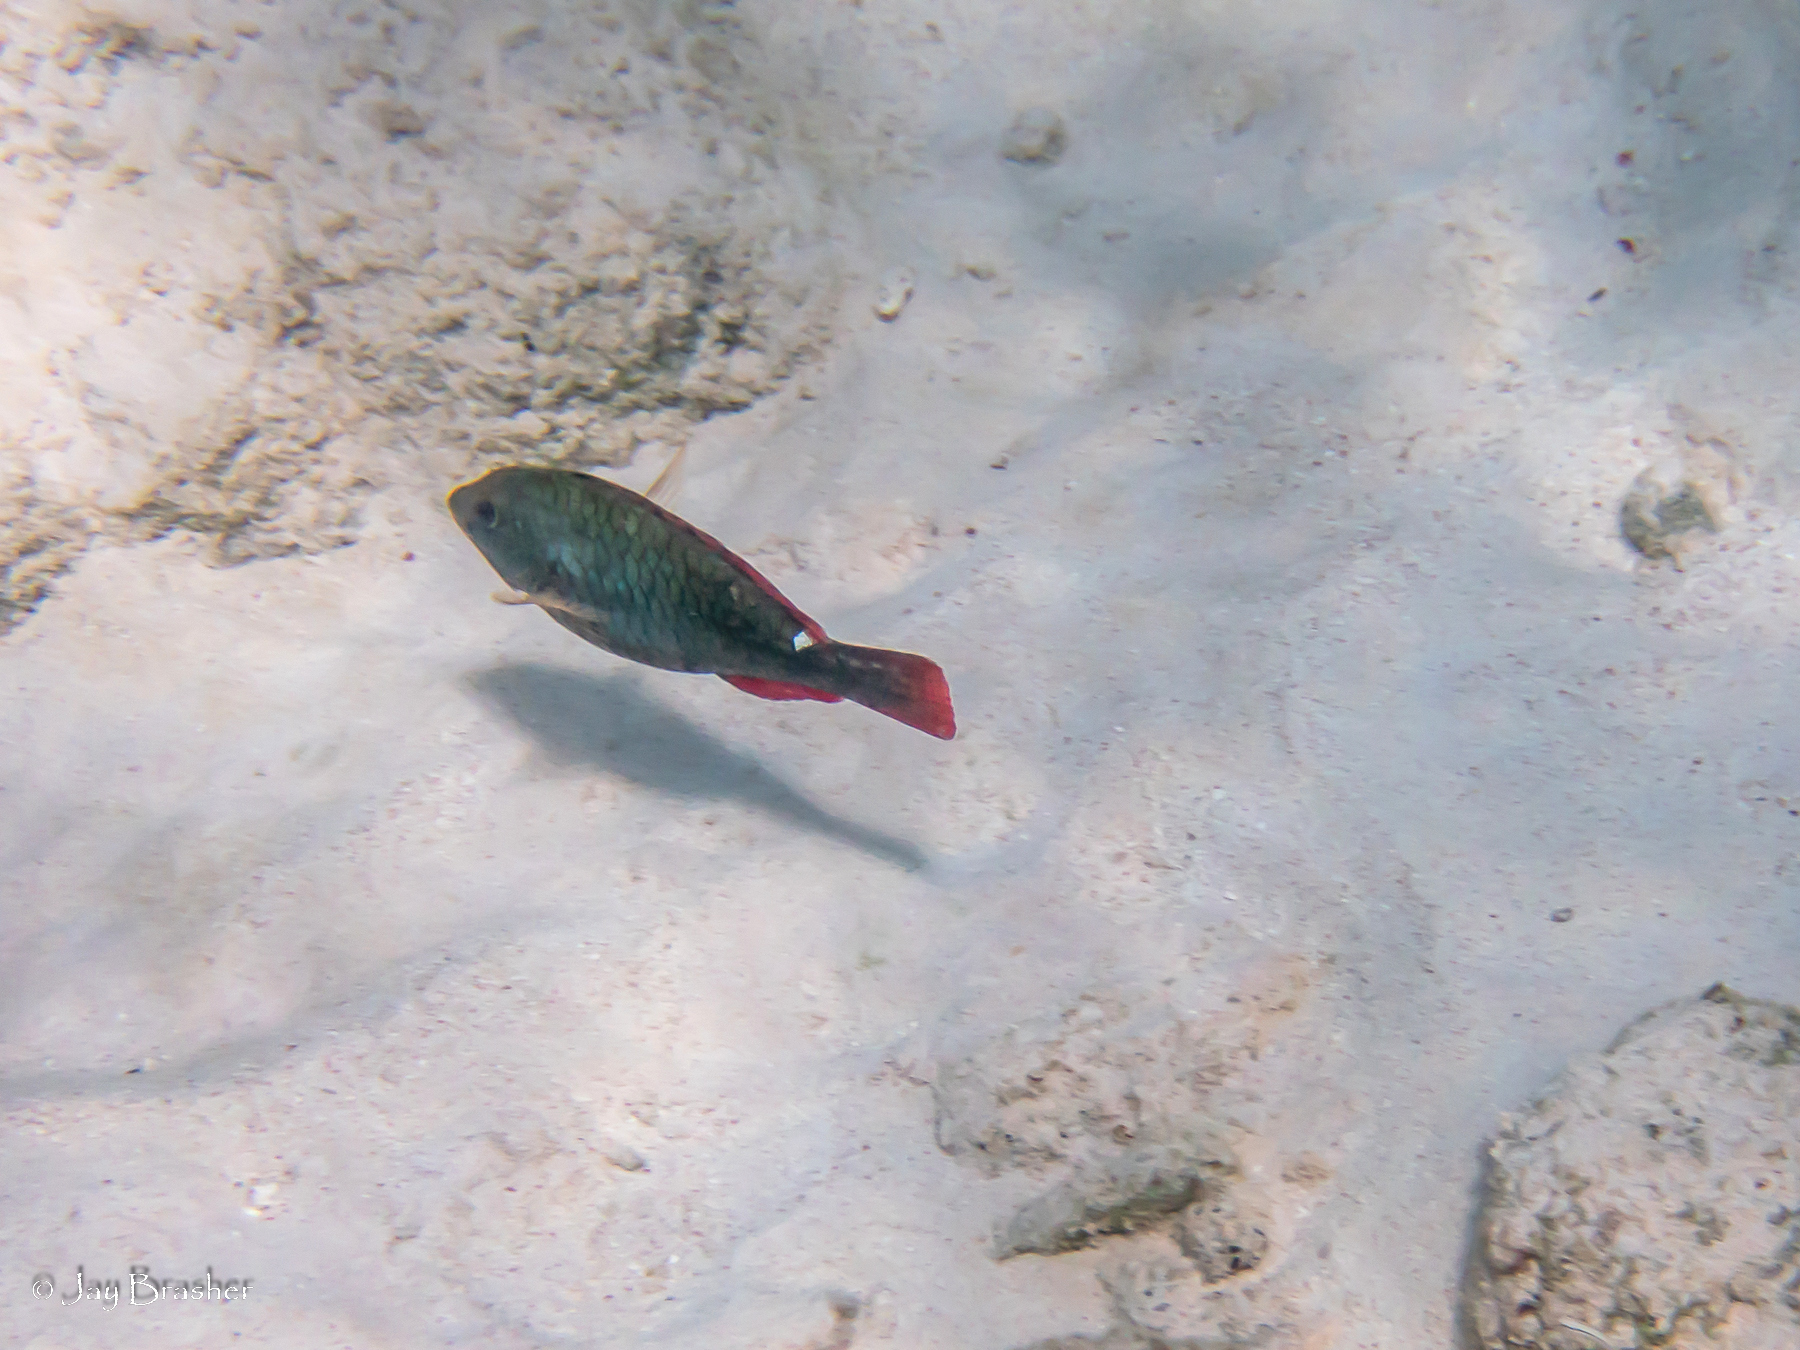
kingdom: Animalia
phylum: Chordata
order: Perciformes
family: Scaridae
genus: Sparisoma
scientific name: Sparisoma aurofrenatum
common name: Redband parrotfish
